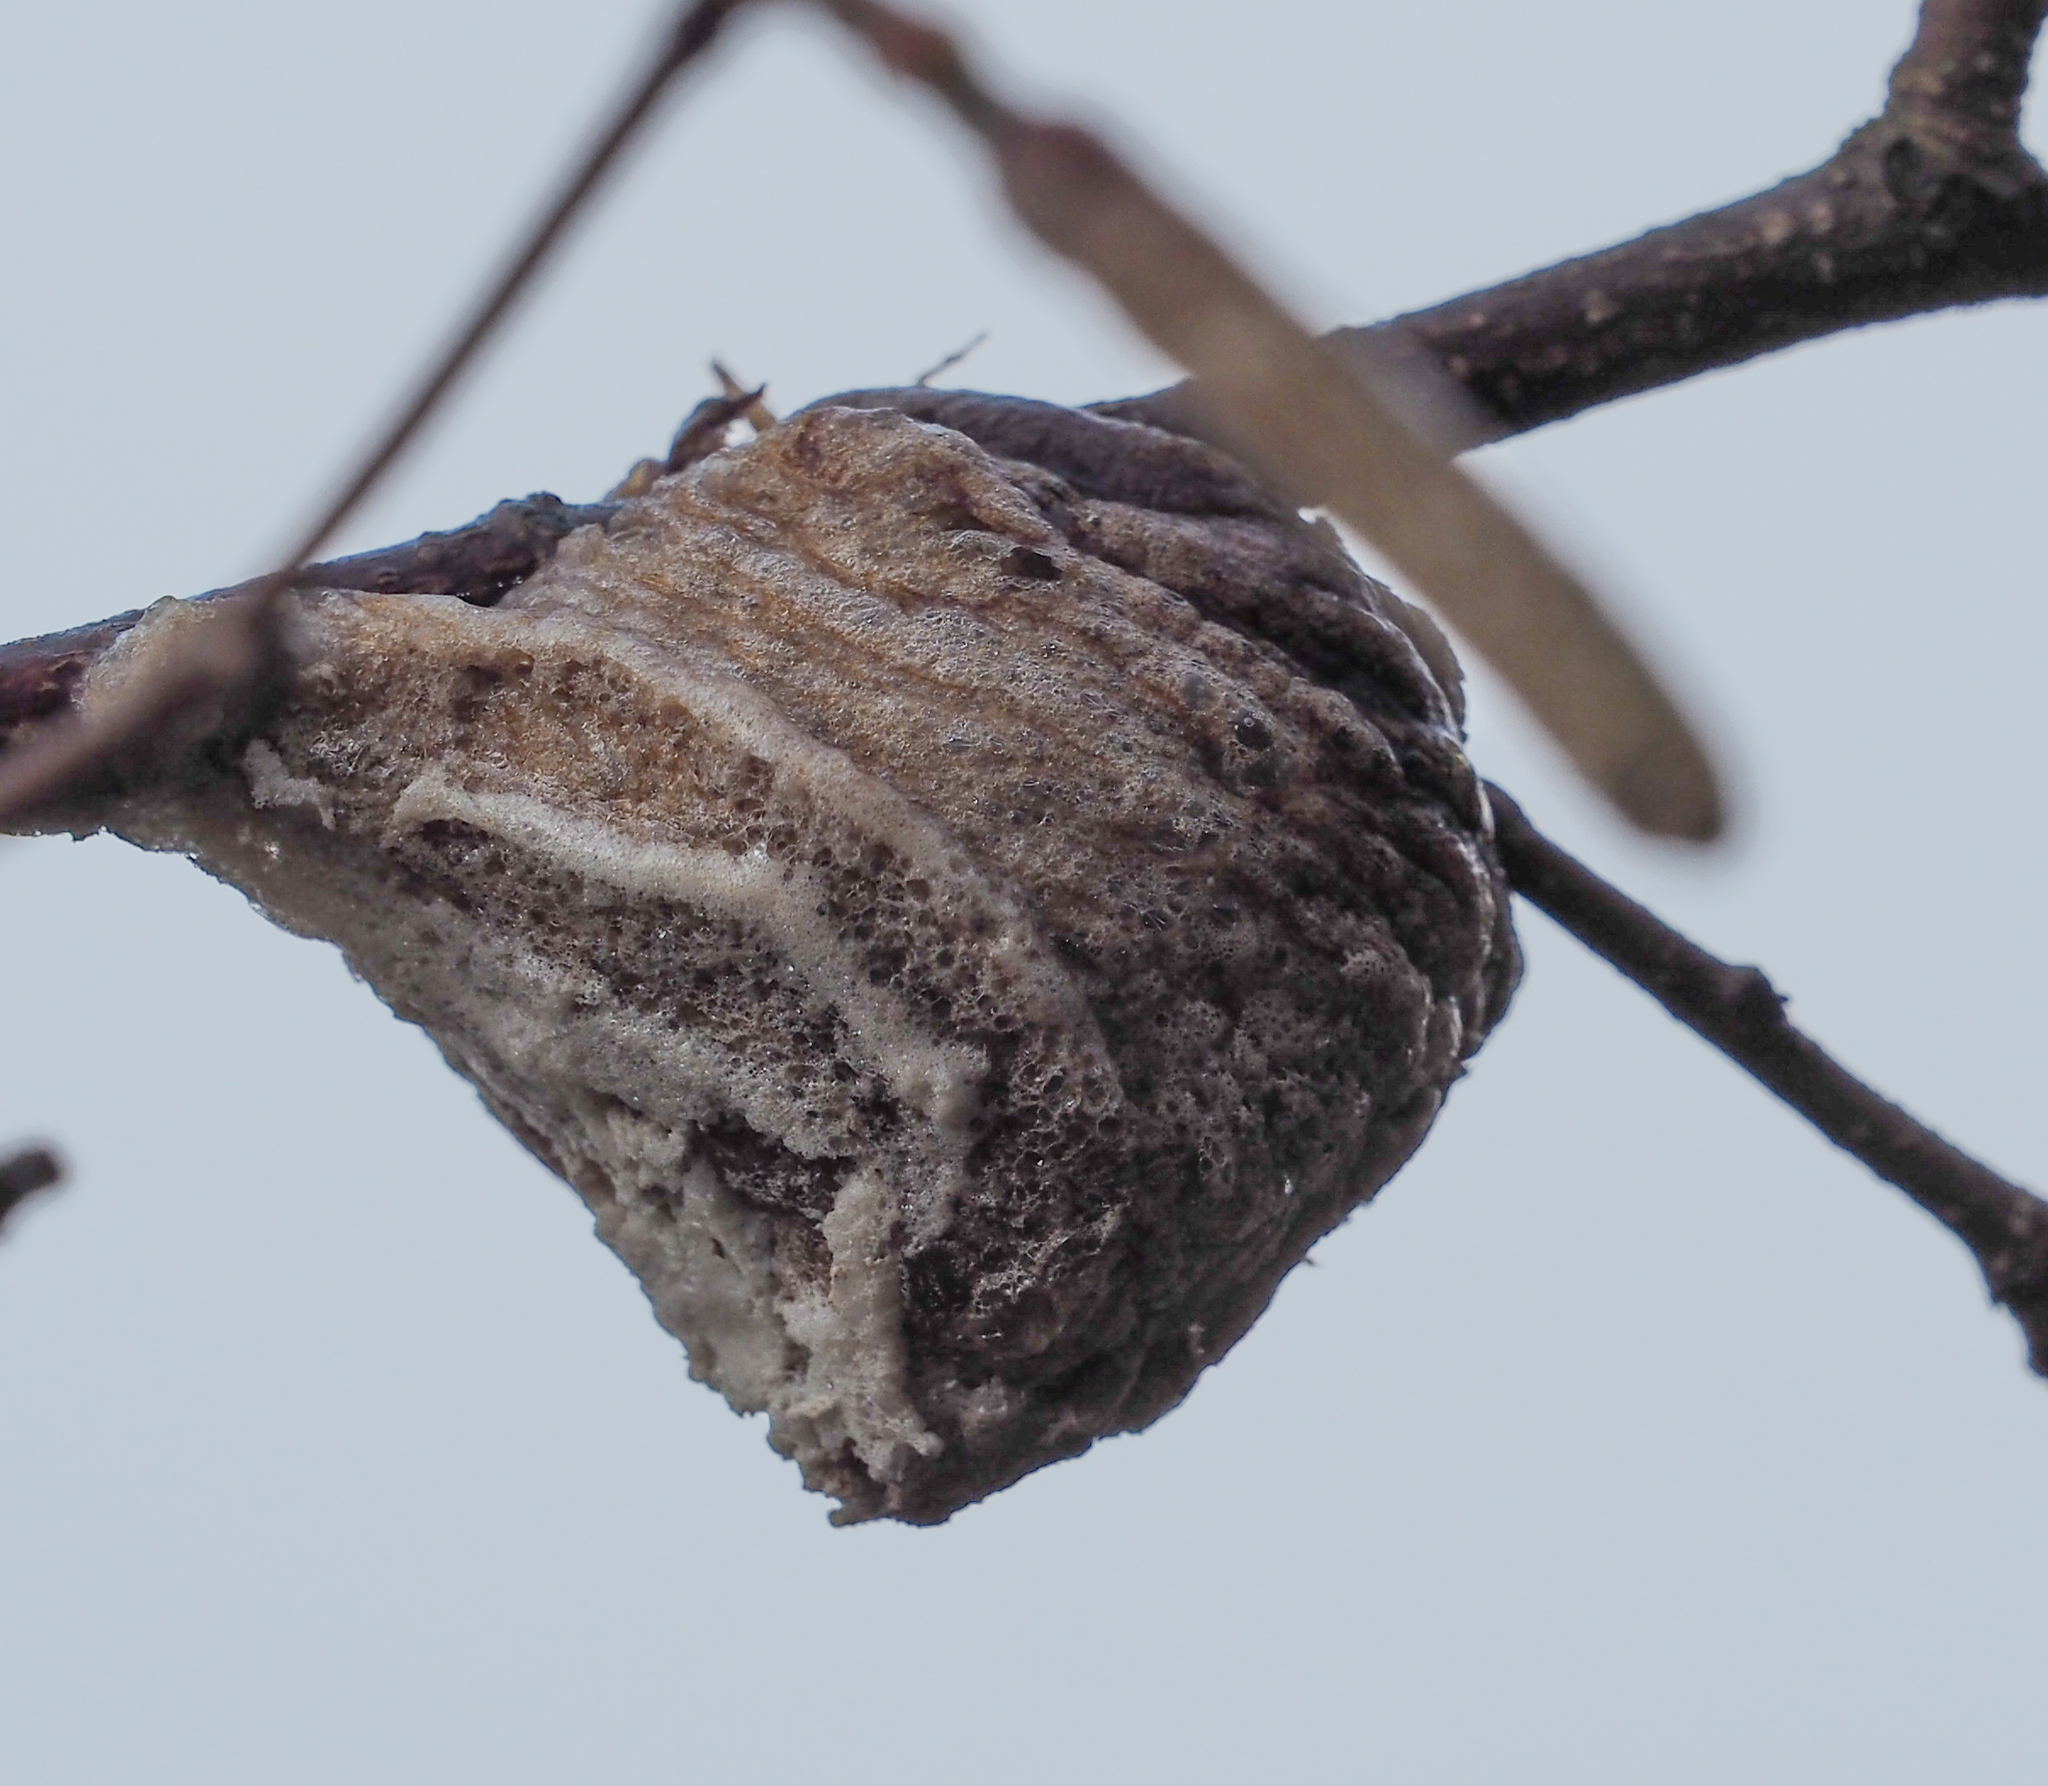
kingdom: Animalia
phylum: Arthropoda
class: Insecta
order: Mantodea
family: Mantidae
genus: Tenodera
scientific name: Tenodera sinensis
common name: Chinese mantis
